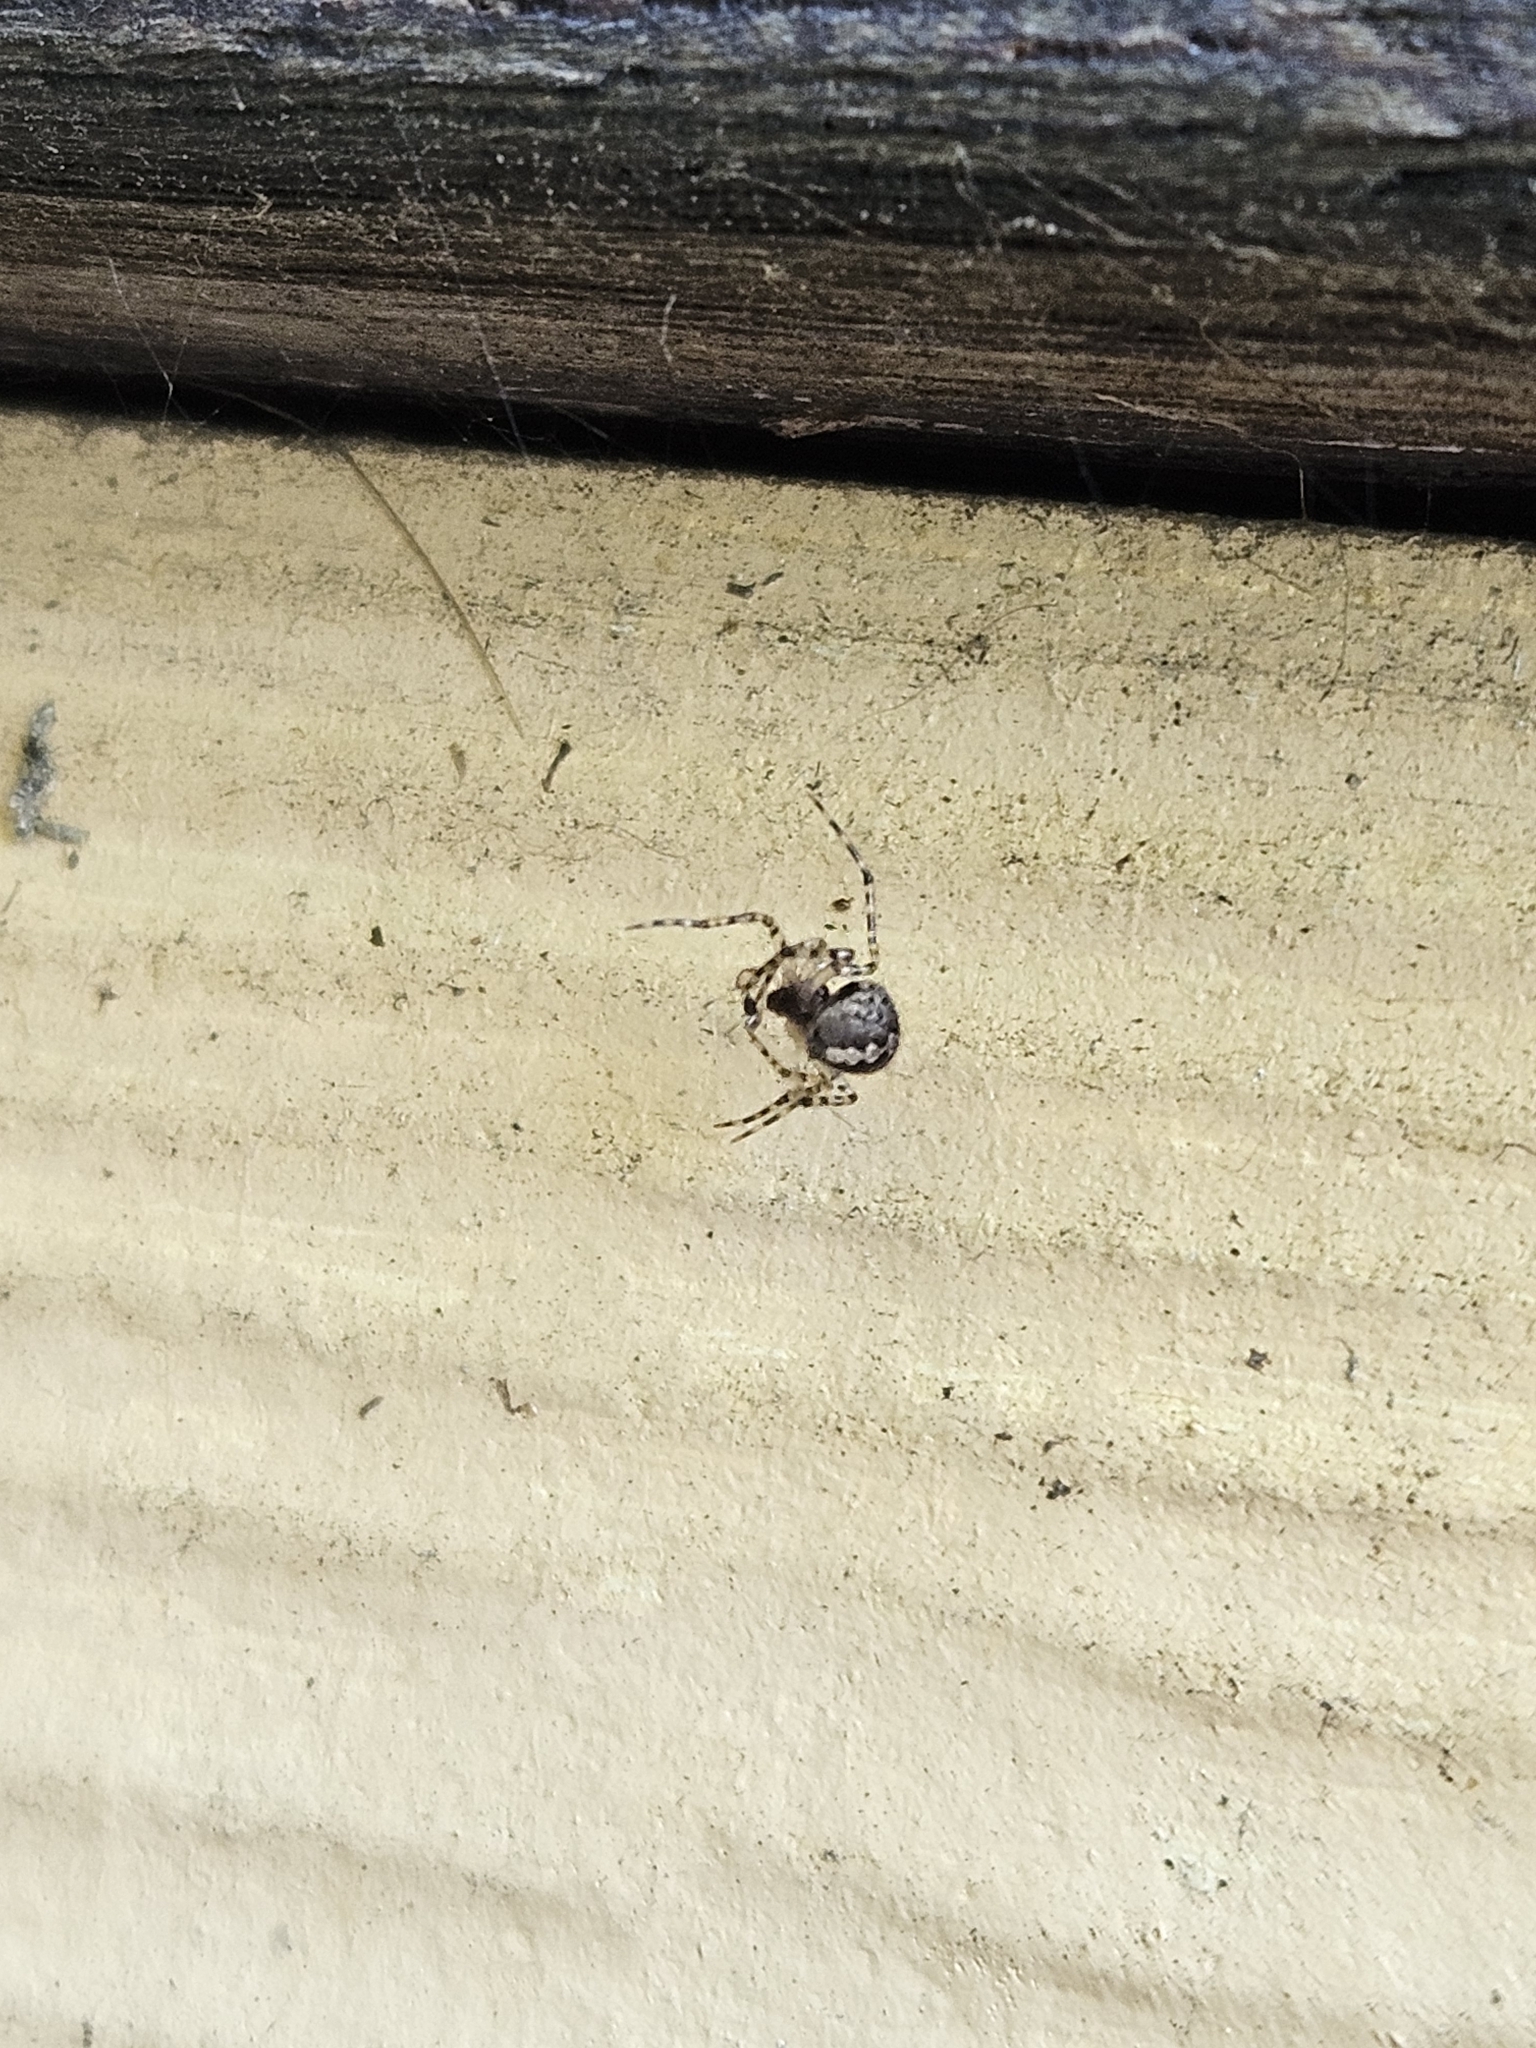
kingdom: Animalia
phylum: Arthropoda
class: Arachnida
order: Araneae
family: Theridiidae
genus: Theridion
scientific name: Theridion melanurum
